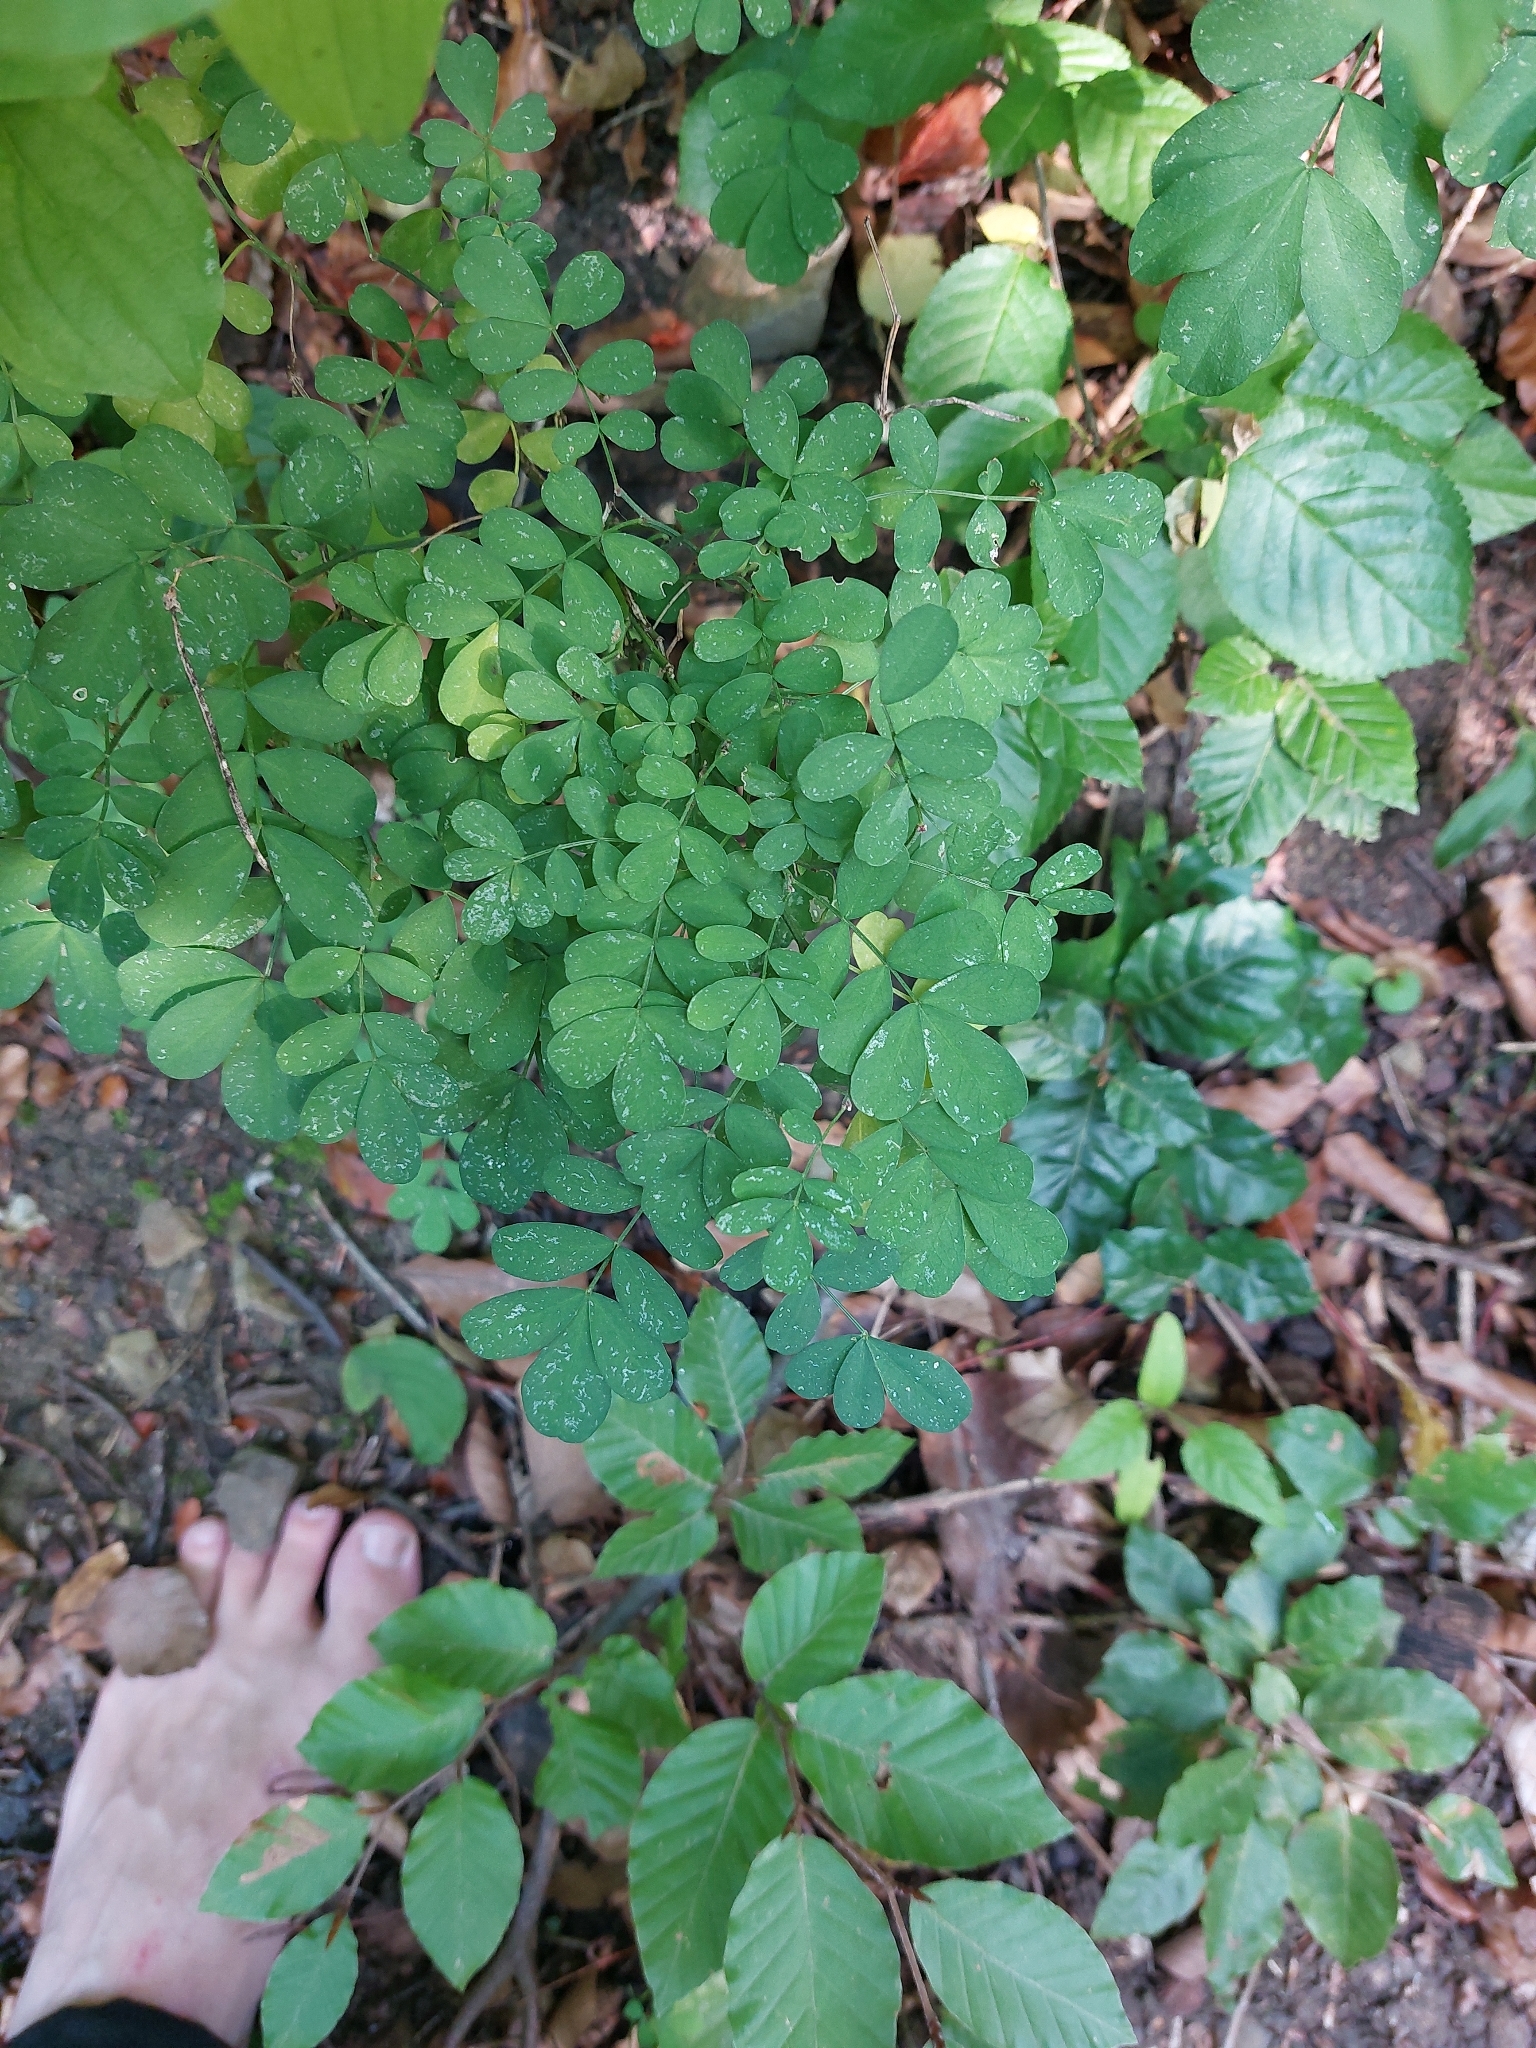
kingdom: Plantae
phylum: Tracheophyta
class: Magnoliopsida
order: Fabales
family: Fabaceae
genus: Hippocrepis
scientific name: Hippocrepis emerus
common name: Scorpion senna
